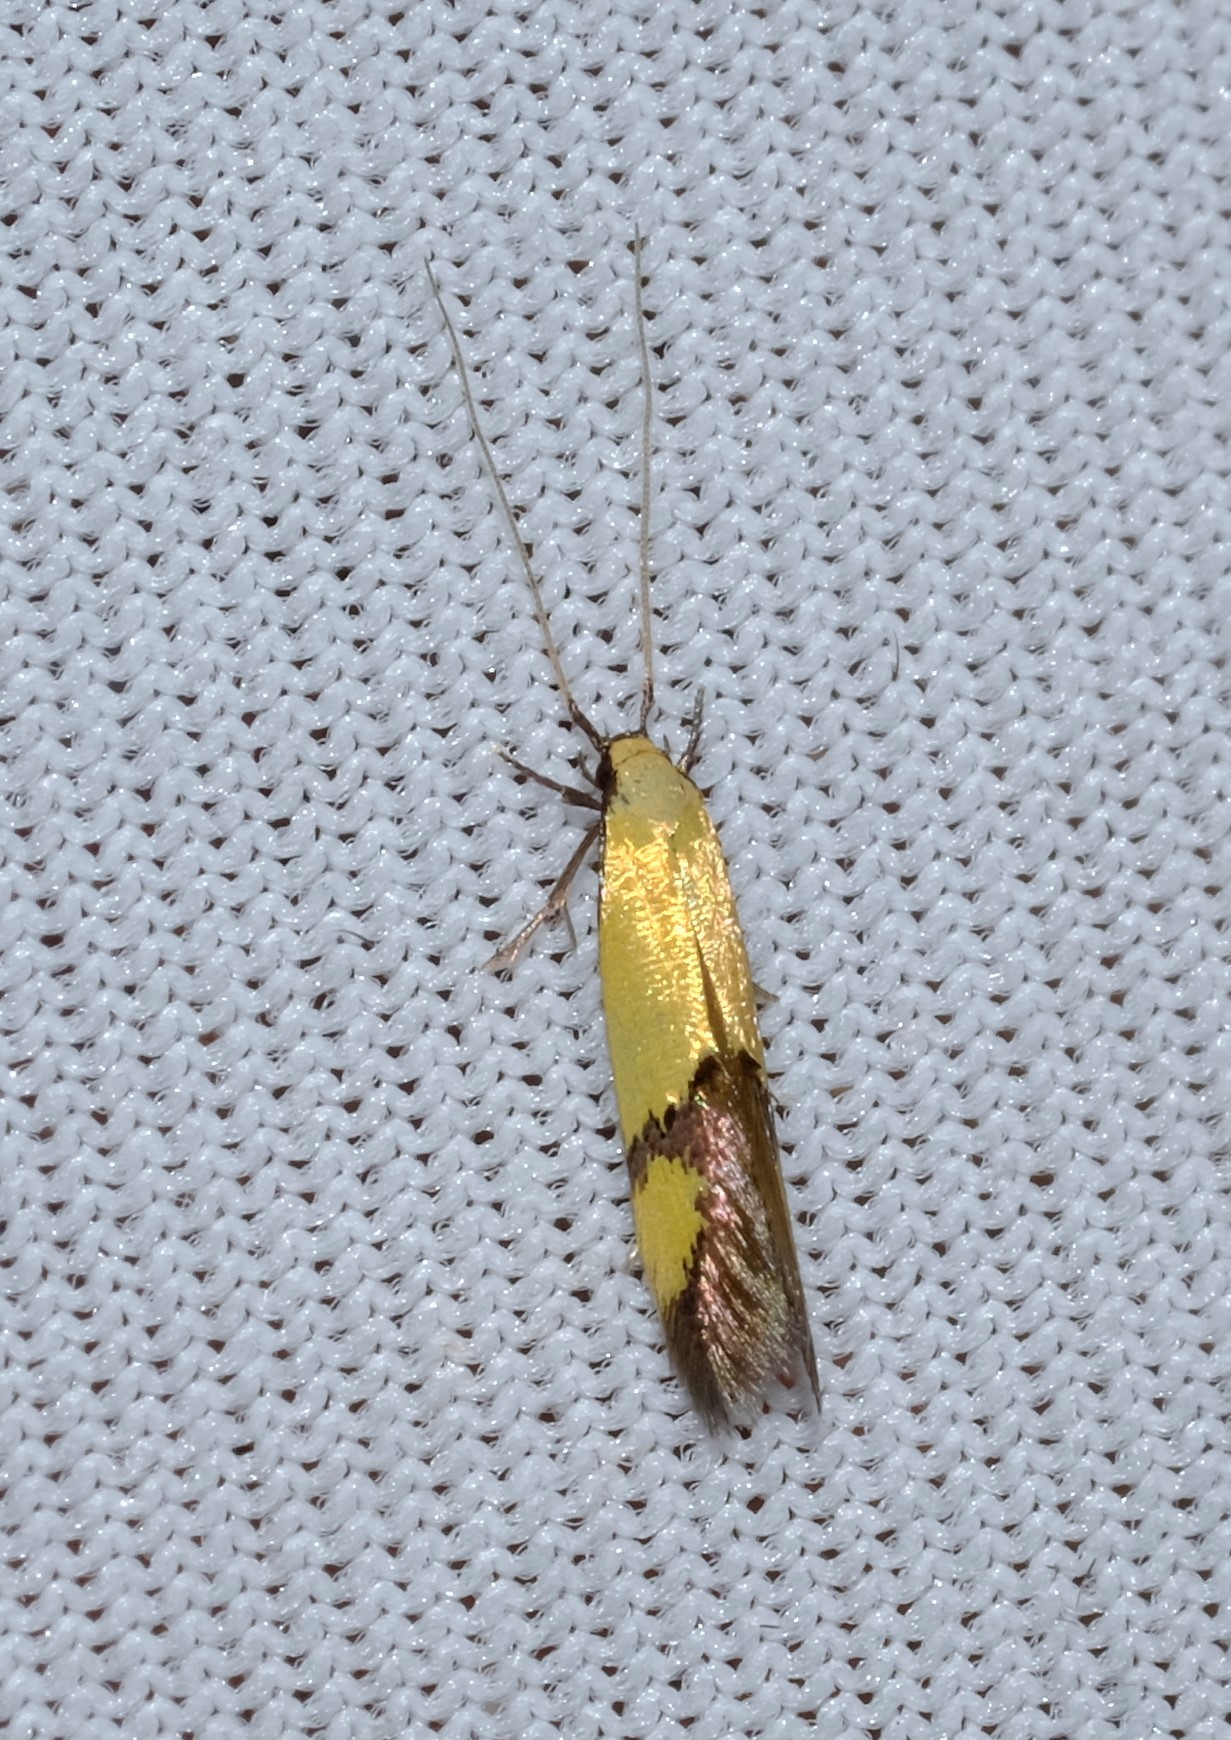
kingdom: Animalia
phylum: Arthropoda
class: Insecta
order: Lepidoptera
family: Tineidae
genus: Opogona
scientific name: Opogona stereodyta
